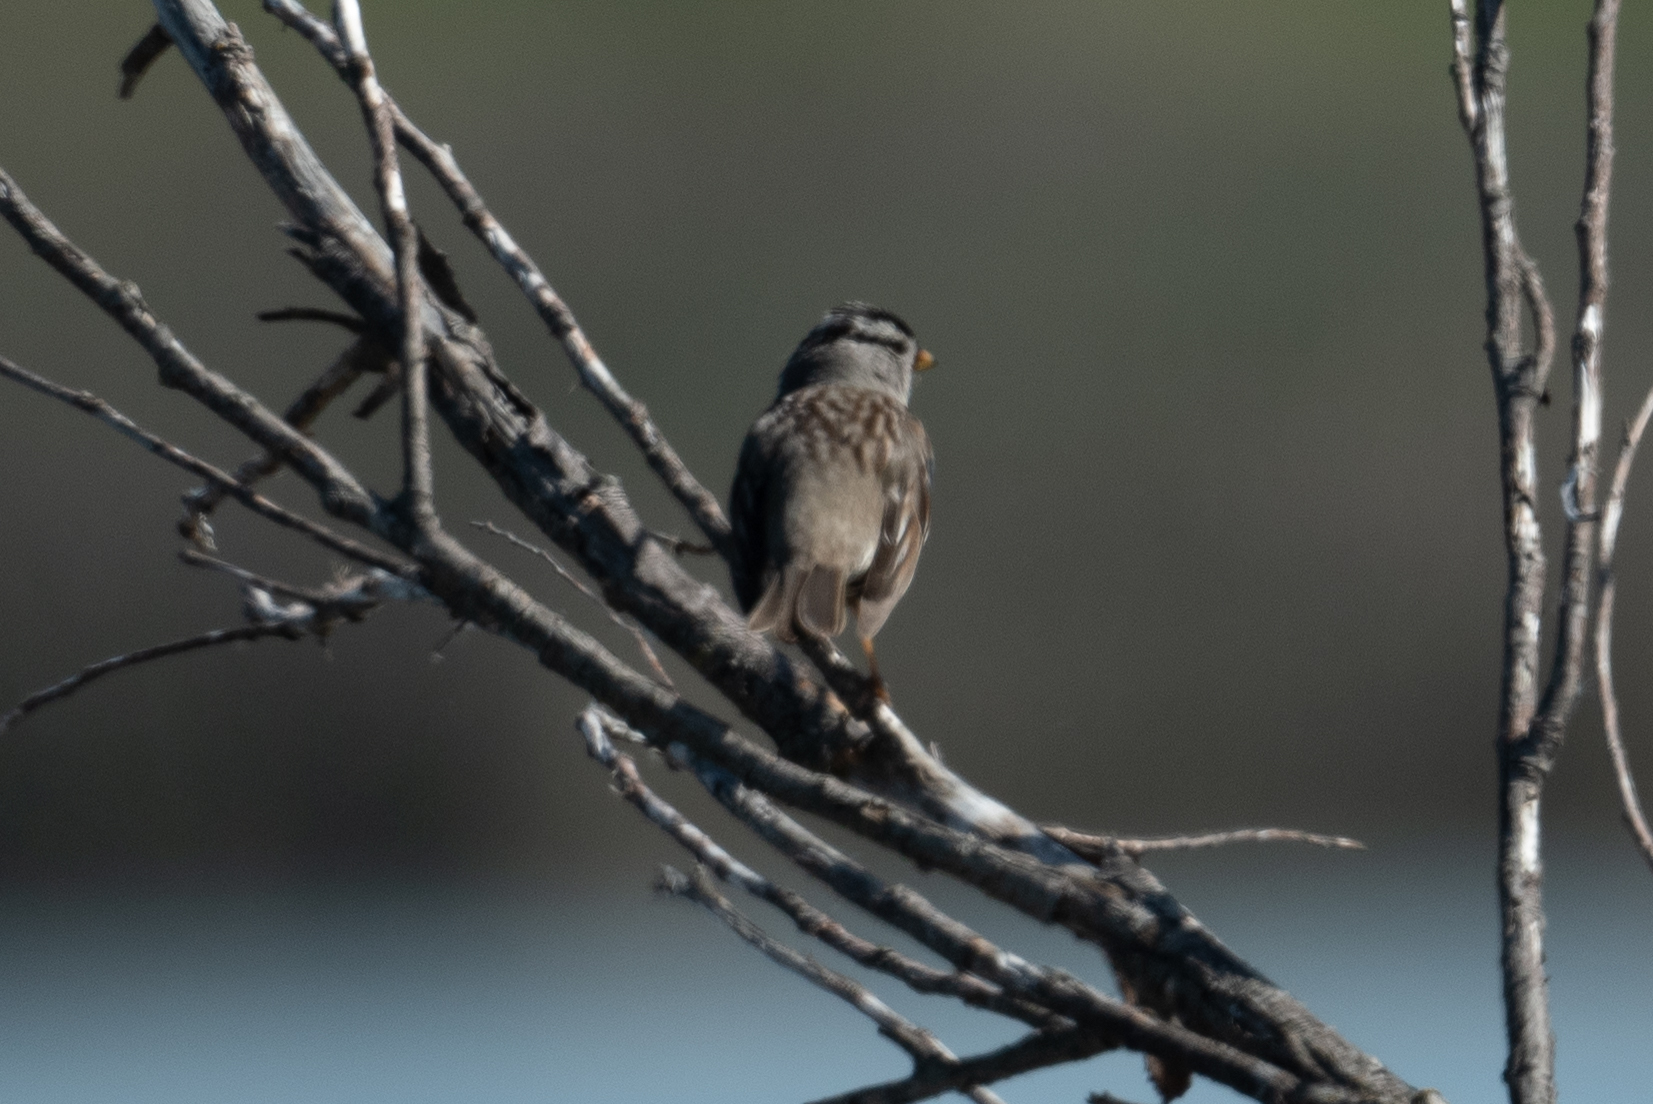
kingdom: Animalia
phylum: Chordata
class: Aves
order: Passeriformes
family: Passerellidae
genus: Zonotrichia
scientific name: Zonotrichia leucophrys
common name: White-crowned sparrow
